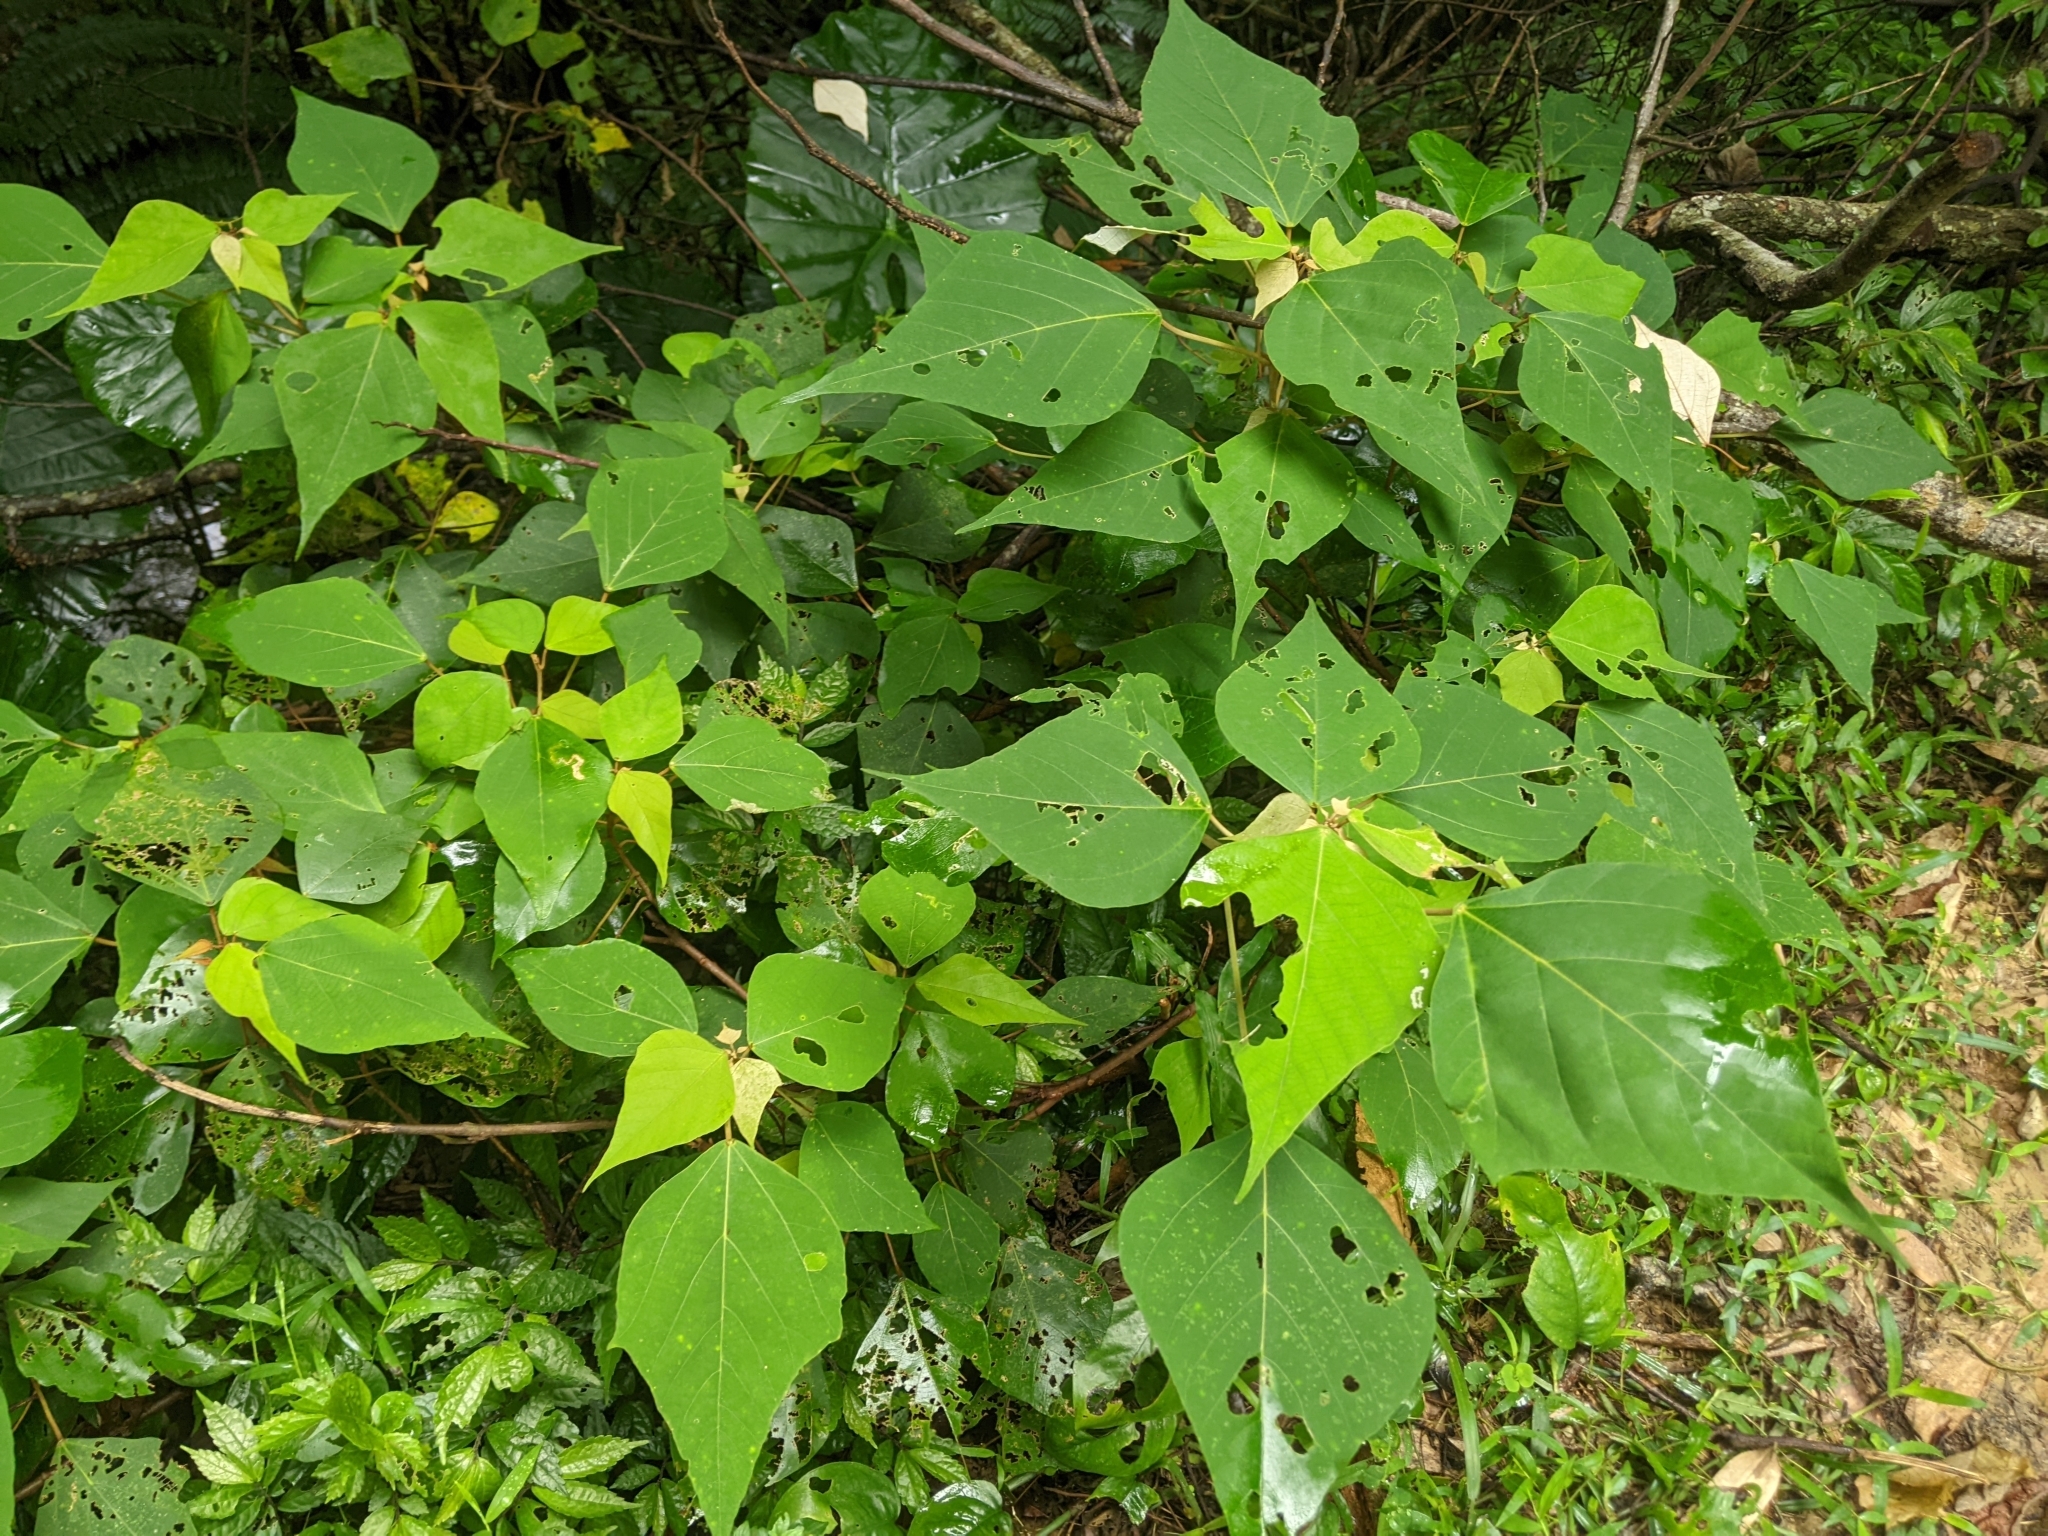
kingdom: Plantae
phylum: Tracheophyta
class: Magnoliopsida
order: Malpighiales
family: Euphorbiaceae
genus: Mallotus
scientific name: Mallotus paniculatus
